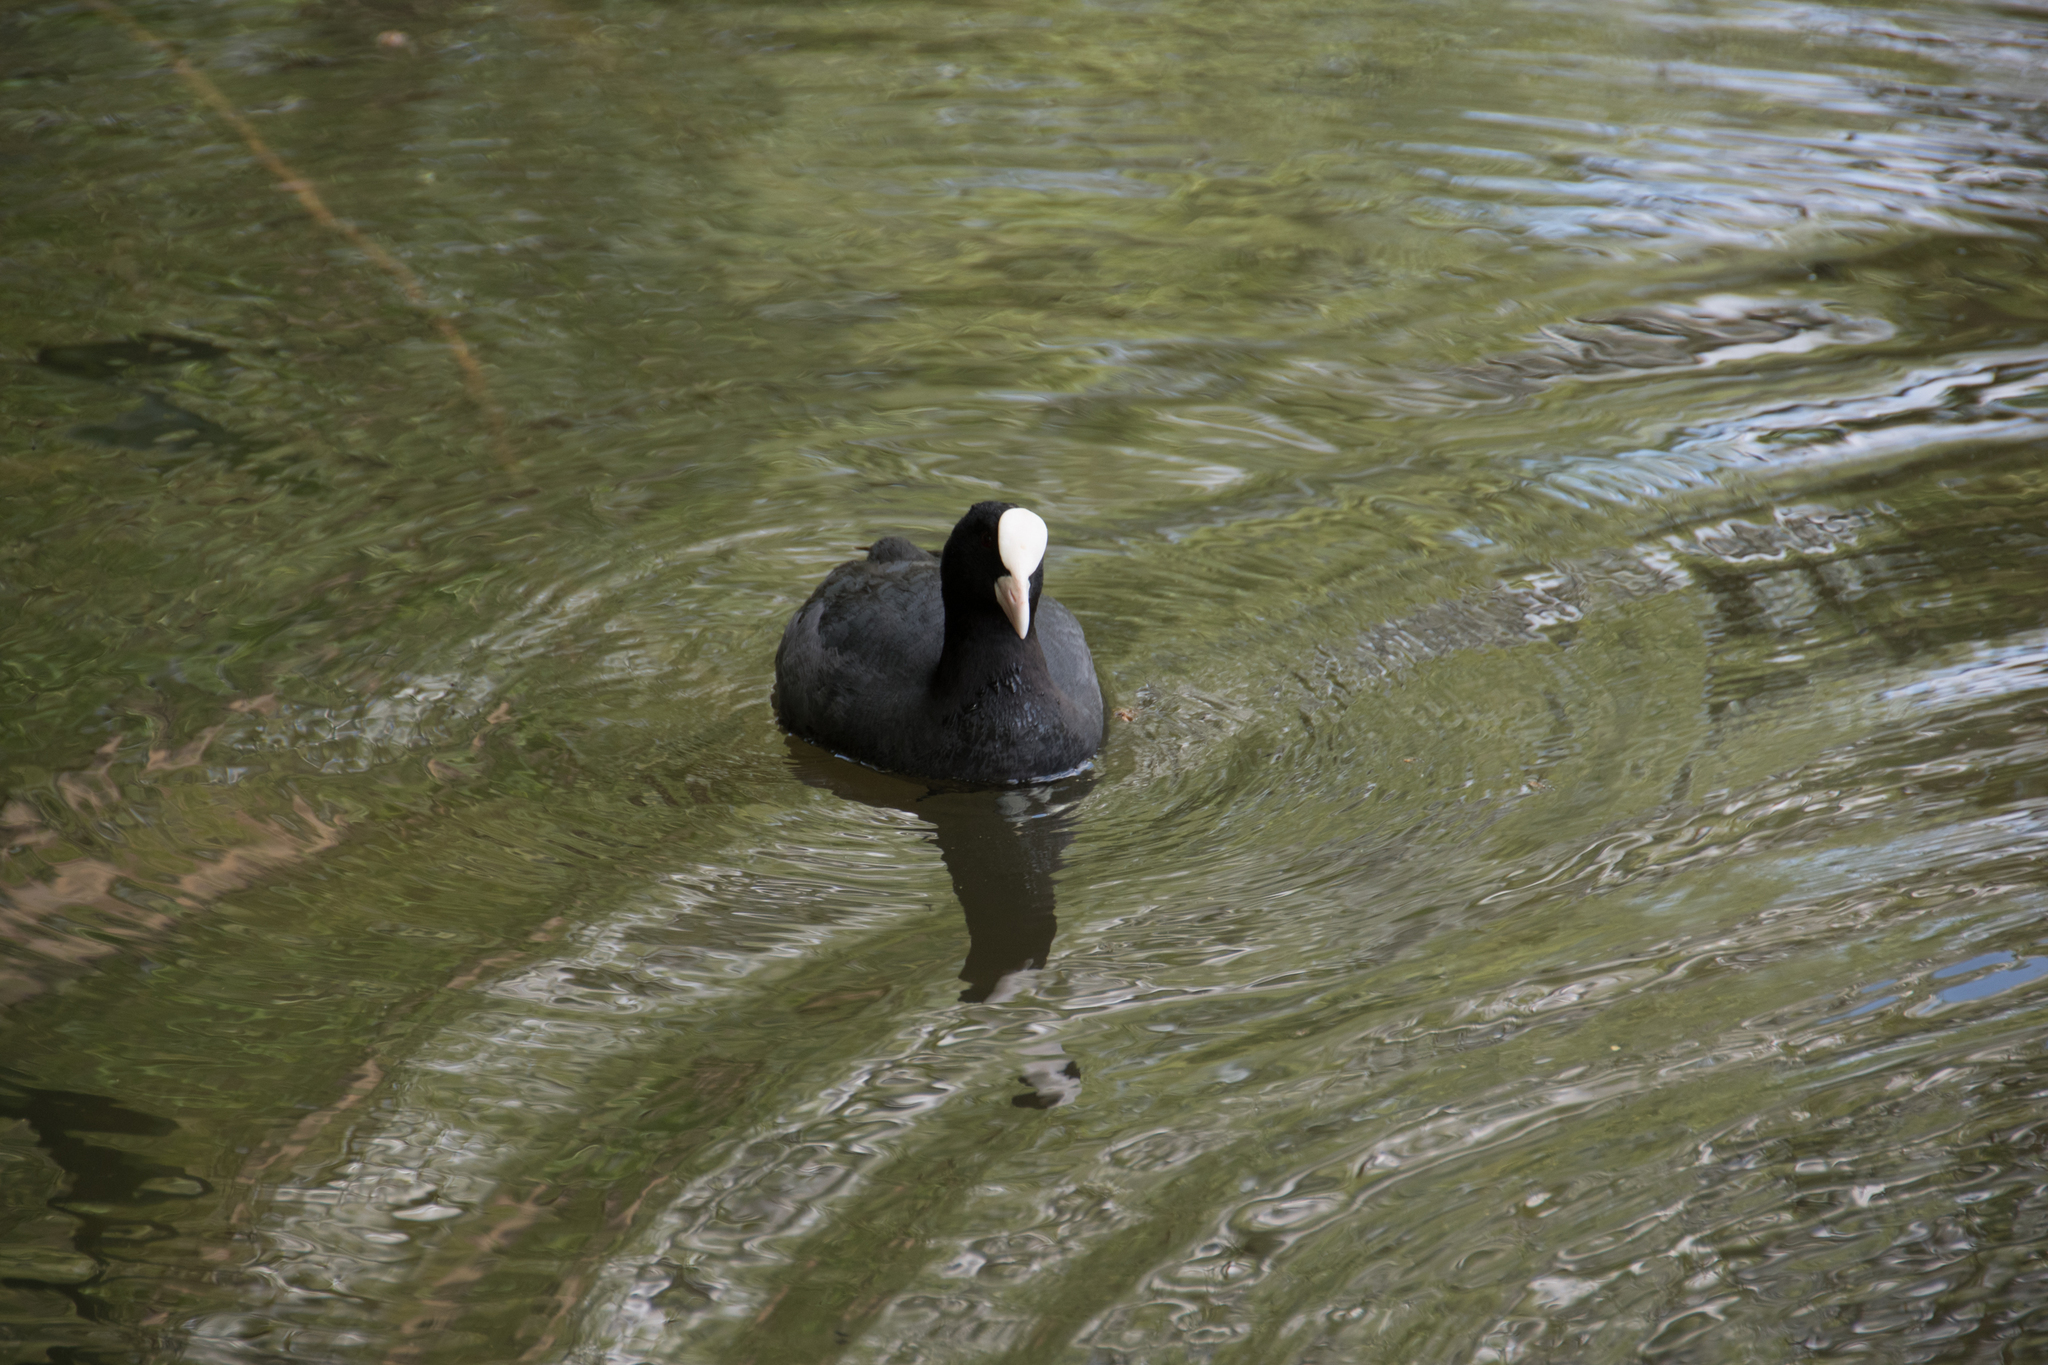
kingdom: Animalia
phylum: Chordata
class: Aves
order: Gruiformes
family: Rallidae
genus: Fulica
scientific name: Fulica atra
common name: Eurasian coot
